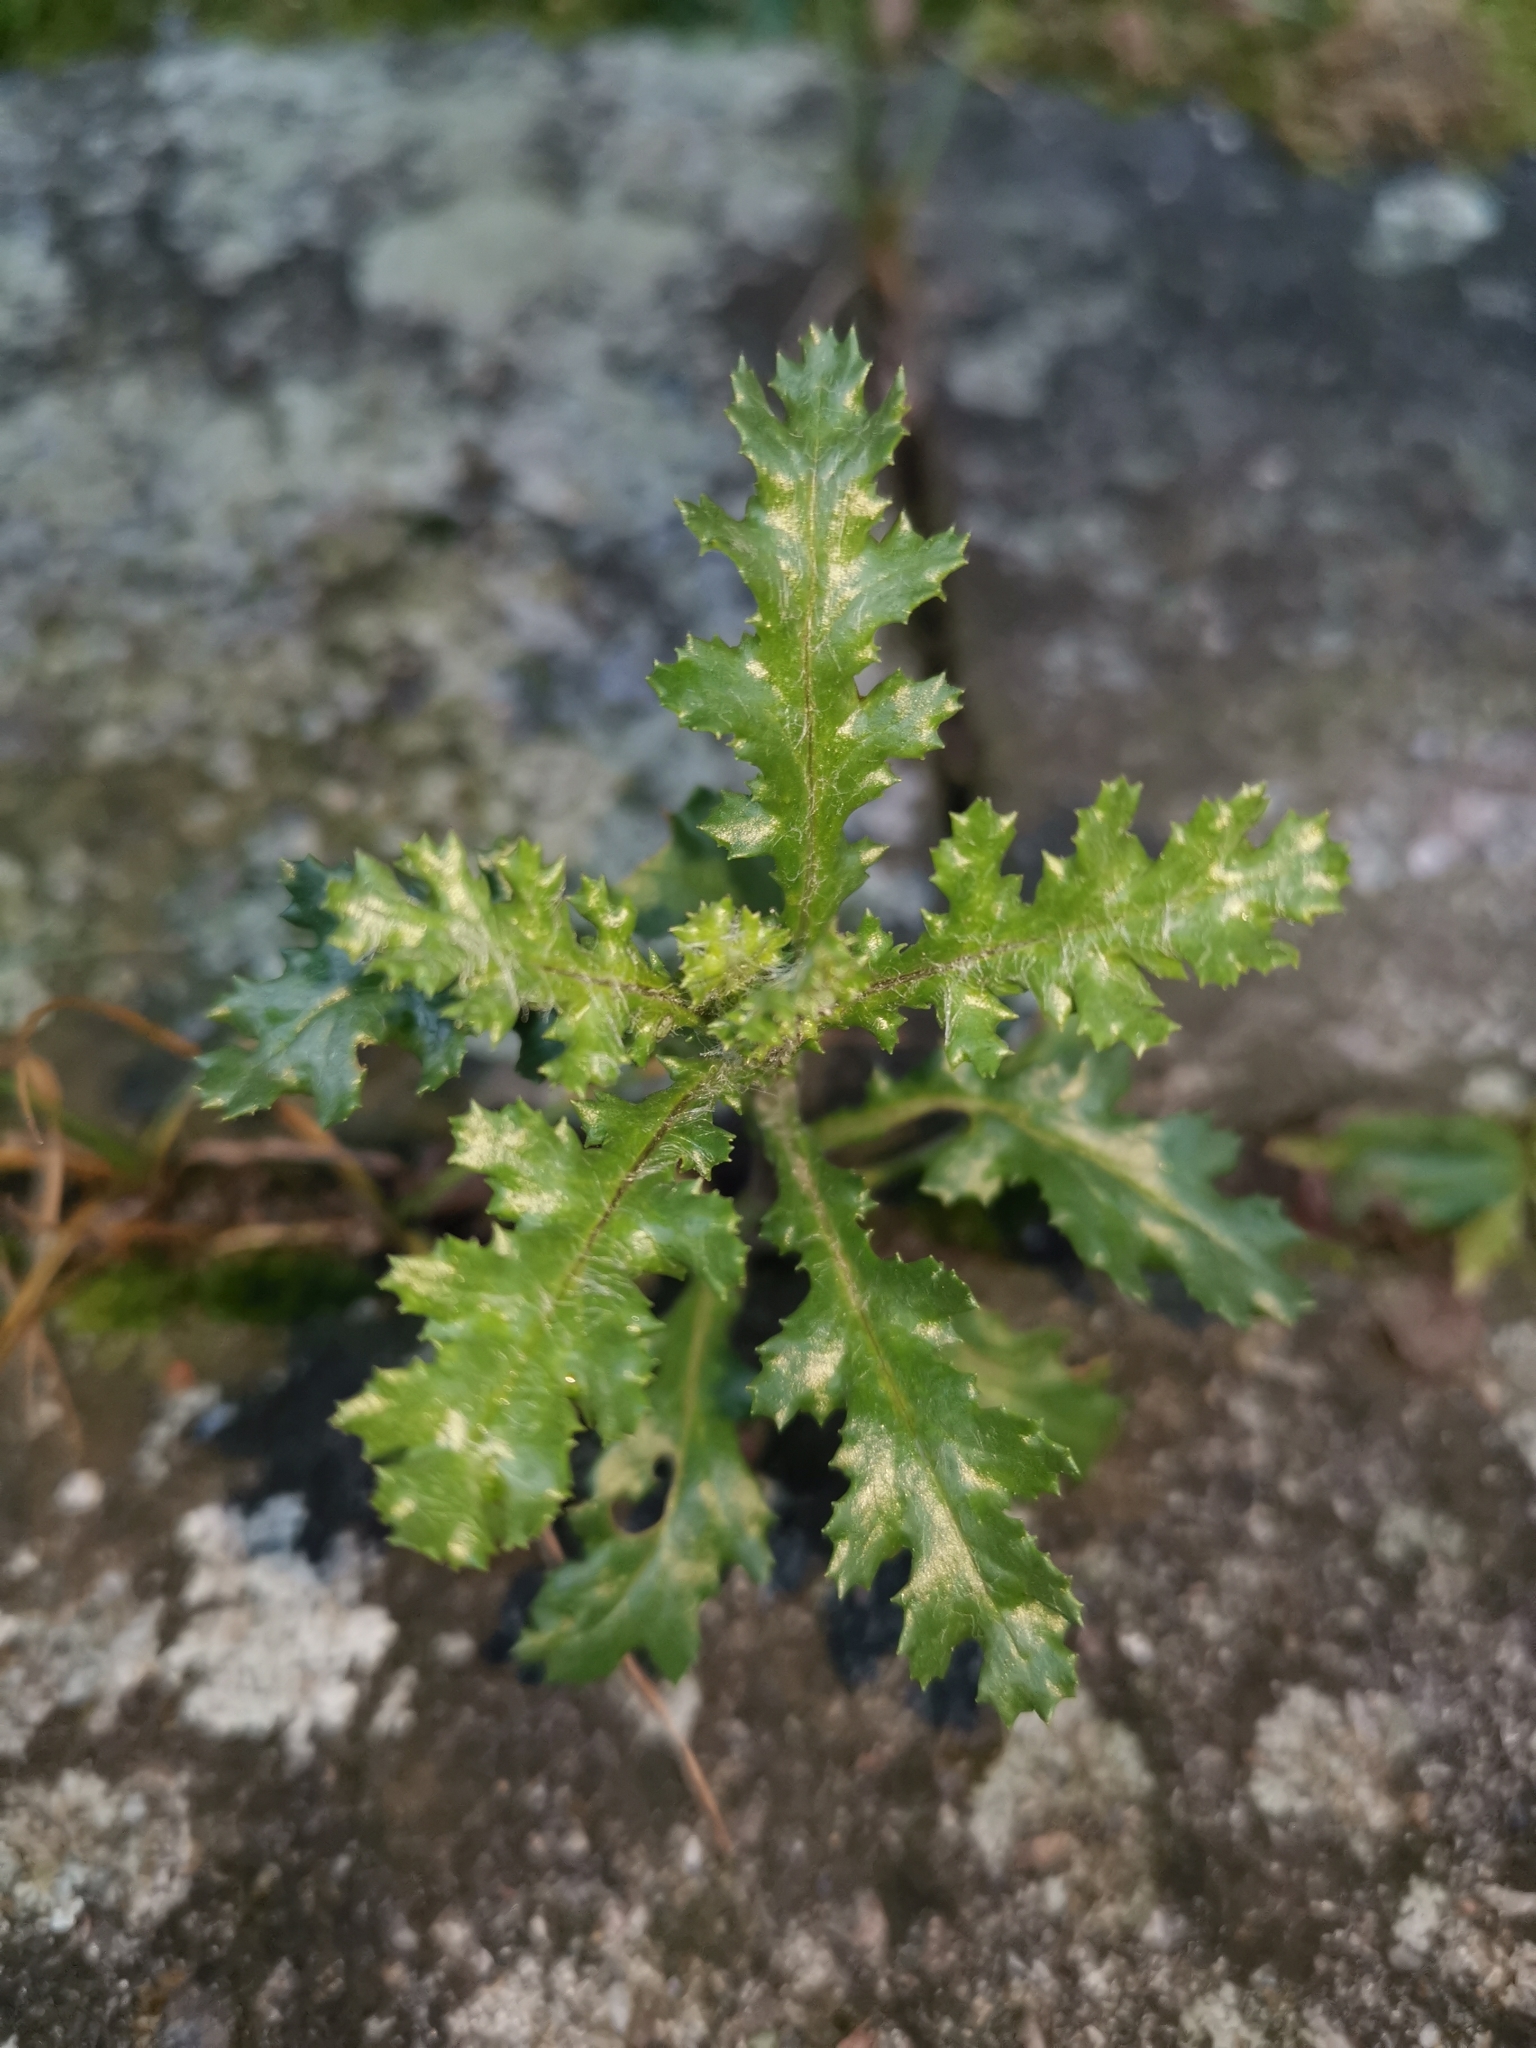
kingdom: Plantae
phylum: Tracheophyta
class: Magnoliopsida
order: Asterales
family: Asteraceae
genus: Senecio
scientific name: Senecio vulgaris
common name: Old-man-in-the-spring
